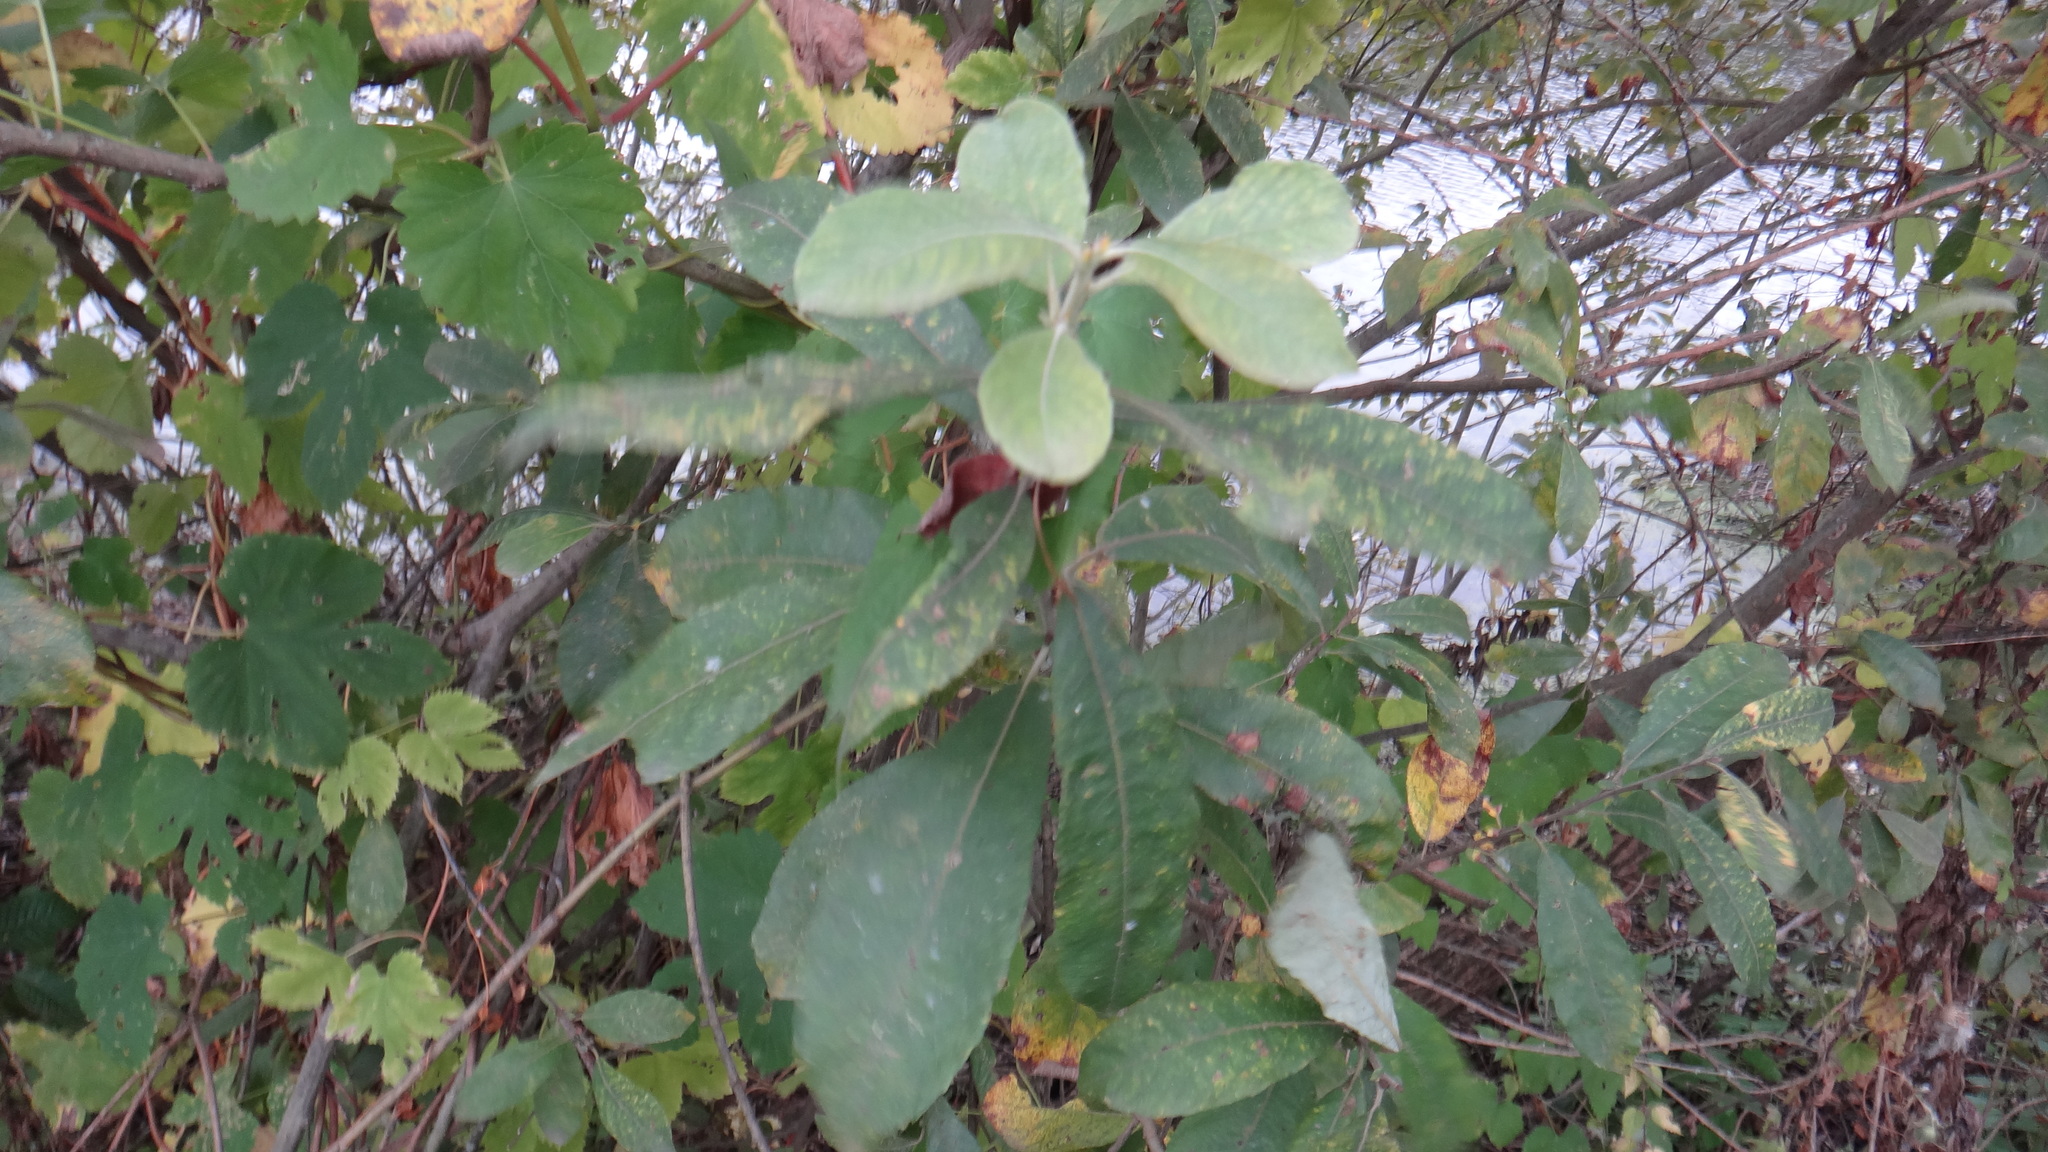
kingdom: Plantae
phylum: Tracheophyta
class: Magnoliopsida
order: Malpighiales
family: Salicaceae
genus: Salix
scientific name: Salix cinerea
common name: Common sallow
